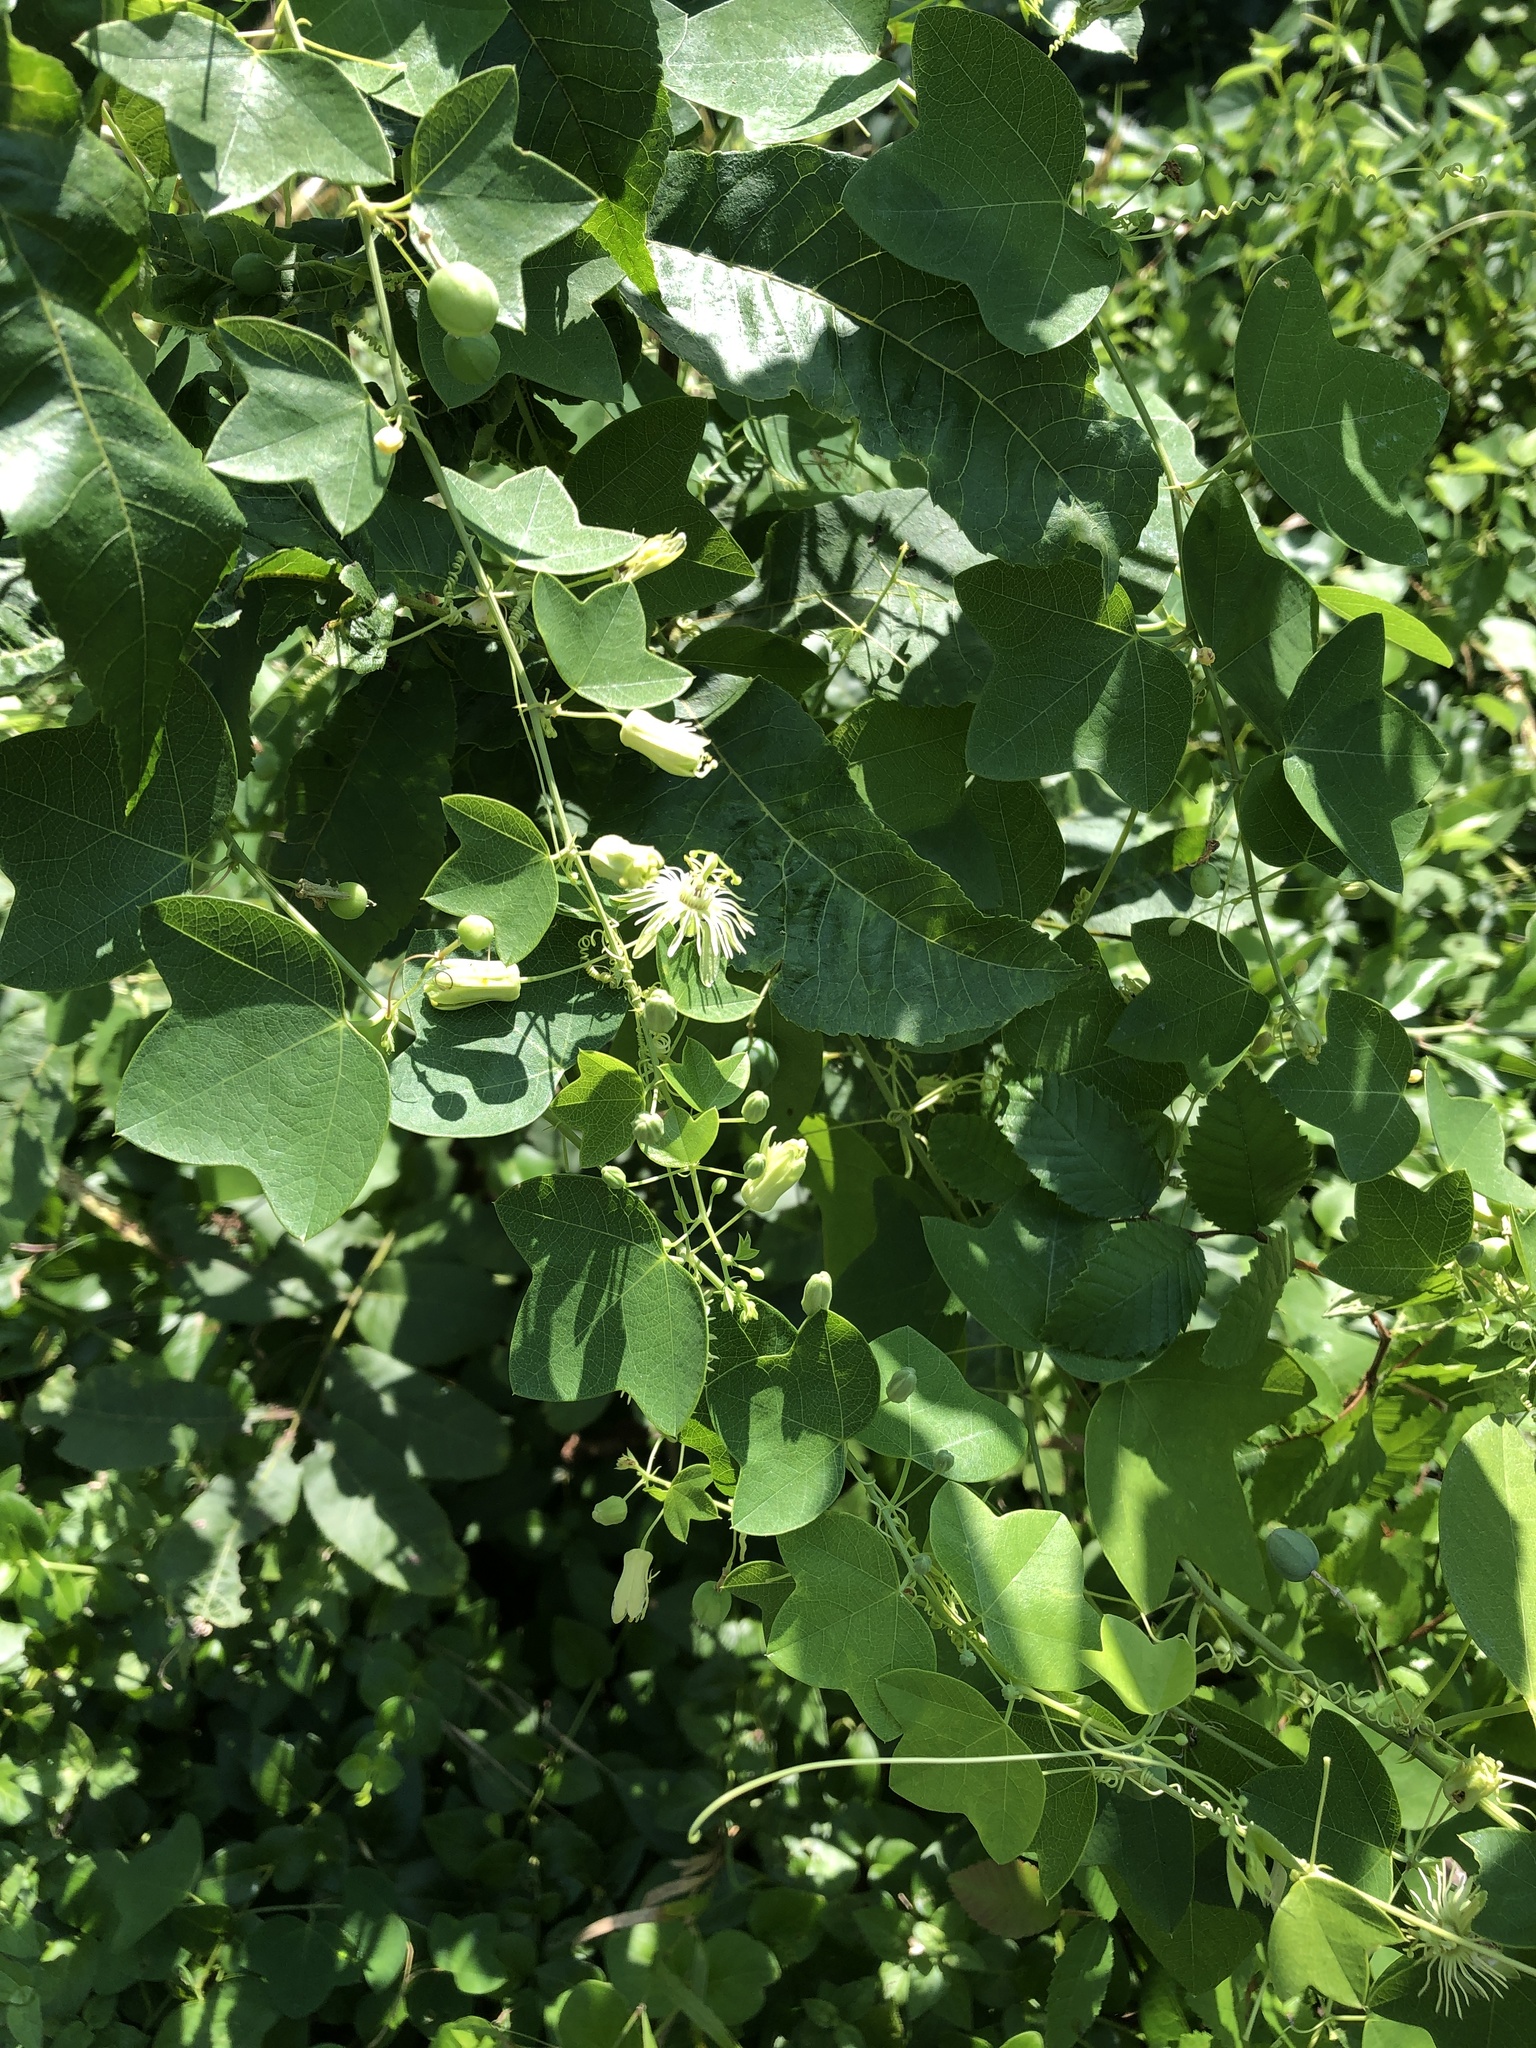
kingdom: Plantae
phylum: Tracheophyta
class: Magnoliopsida
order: Malpighiales
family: Passifloraceae
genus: Passiflora
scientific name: Passiflora lutea
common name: Yellow passionflower
